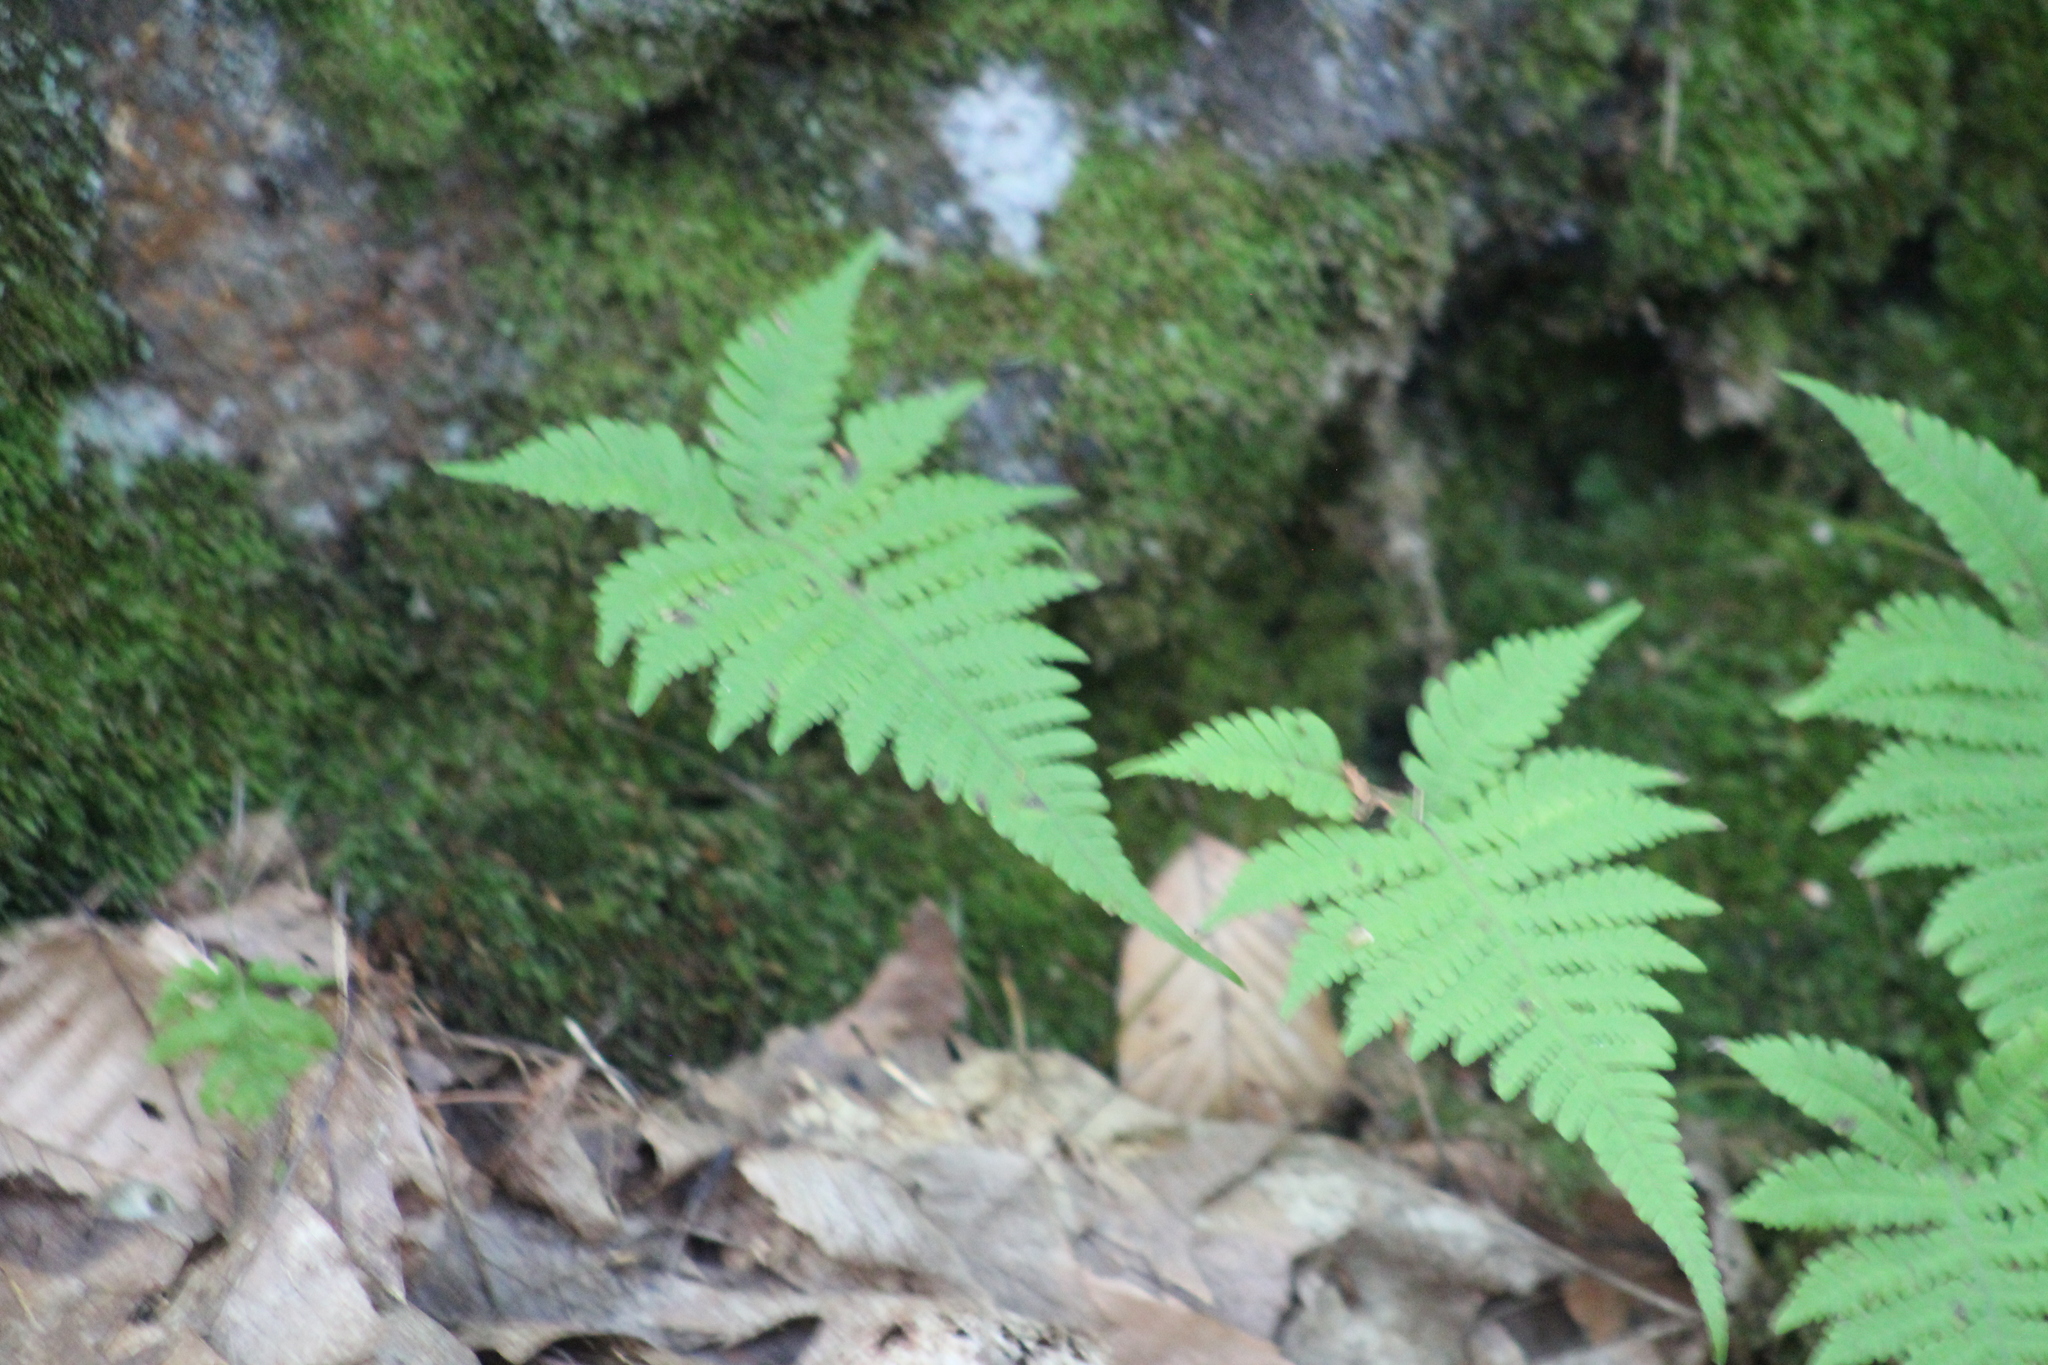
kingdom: Plantae
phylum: Tracheophyta
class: Polypodiopsida
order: Polypodiales
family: Thelypteridaceae
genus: Phegopteris
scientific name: Phegopteris connectilis
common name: Beech fern
